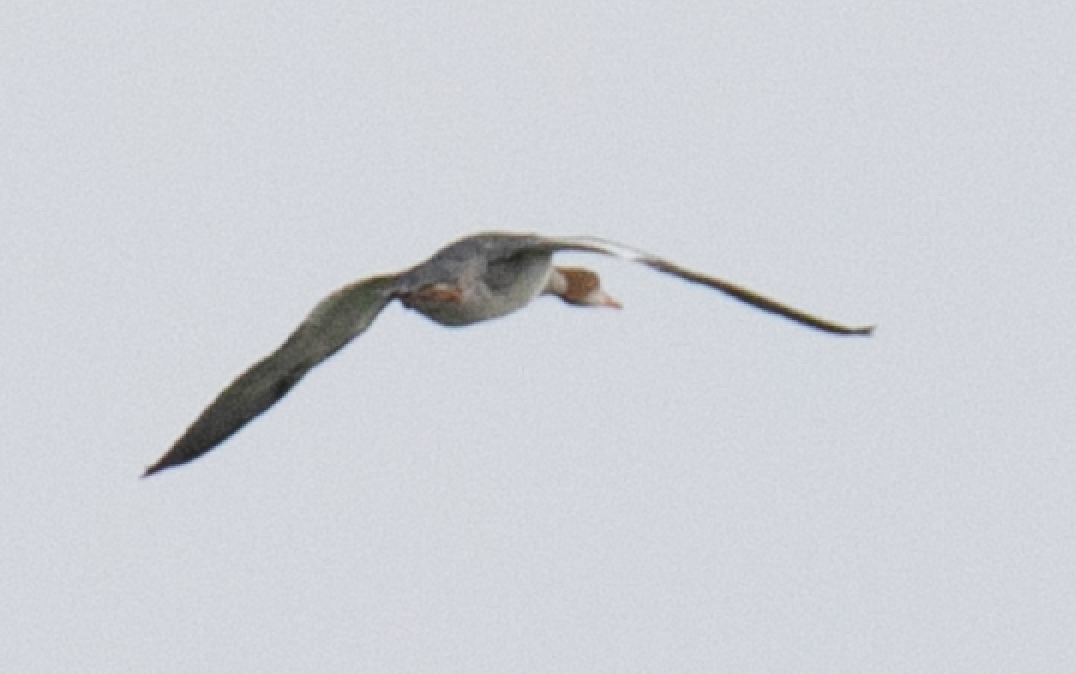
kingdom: Animalia
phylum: Chordata
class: Aves
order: Anseriformes
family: Anatidae
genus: Mergus
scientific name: Mergus merganser
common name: Common merganser
